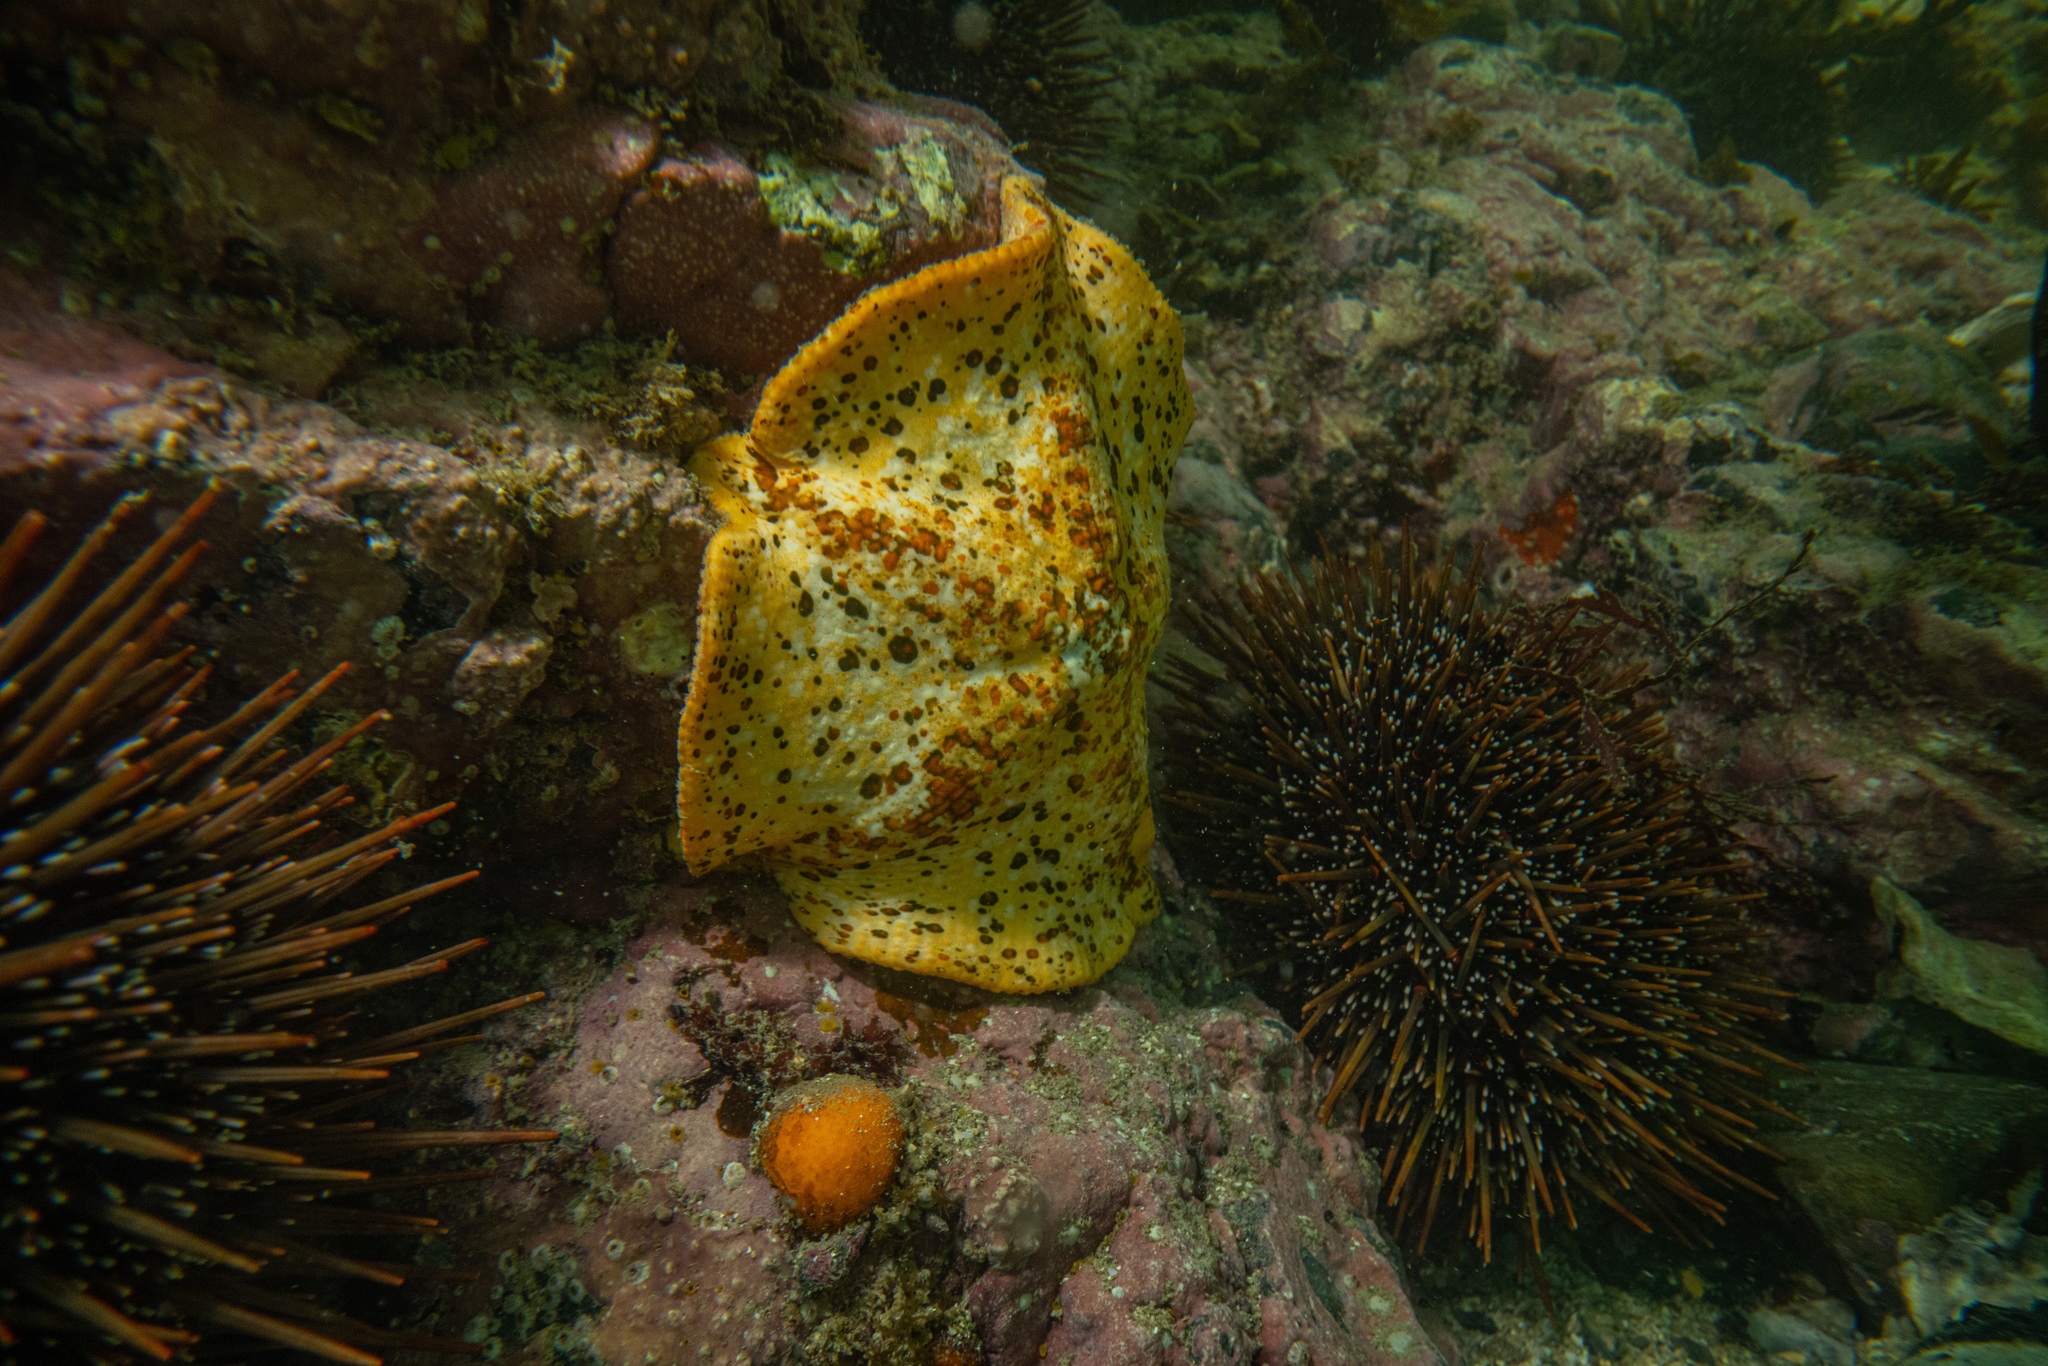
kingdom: Animalia
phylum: Echinodermata
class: Asteroidea
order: Valvatida
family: Asterinidae
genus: Stegnaster
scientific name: Stegnaster inflatus
